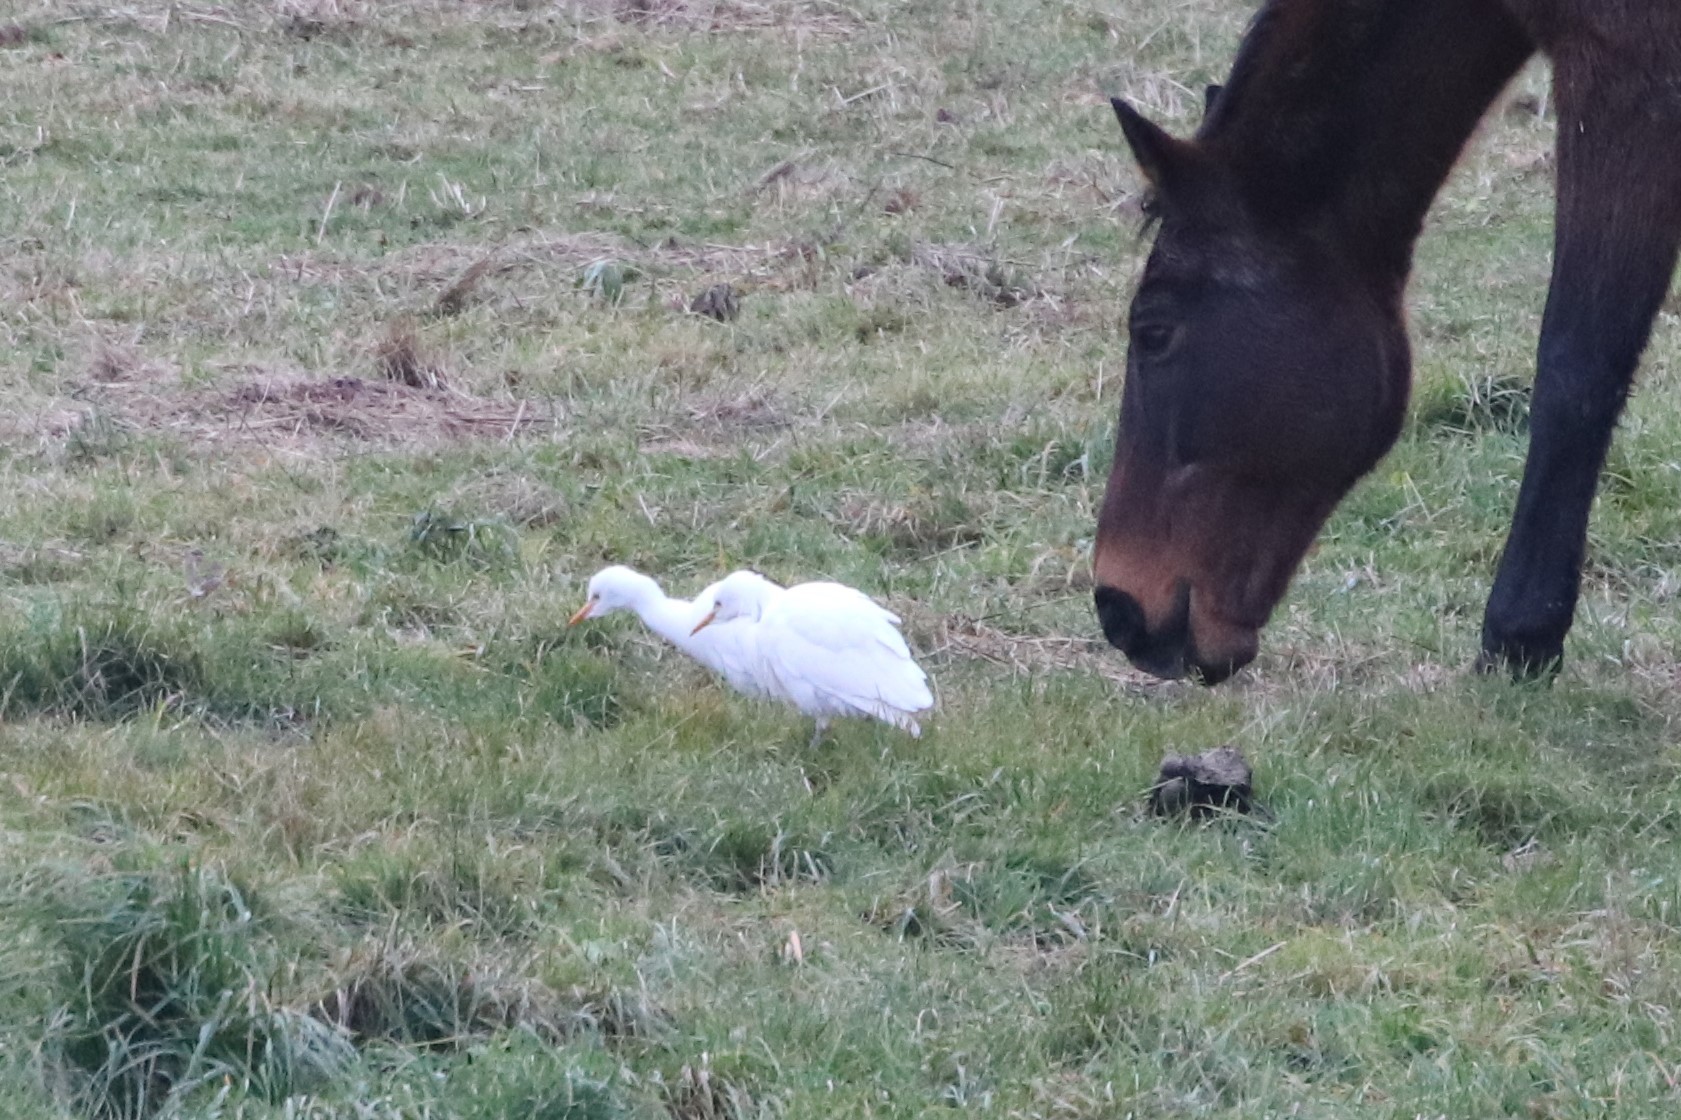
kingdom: Animalia
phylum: Chordata
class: Aves
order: Pelecaniformes
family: Ardeidae
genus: Bubulcus
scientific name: Bubulcus ibis
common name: Cattle egret
